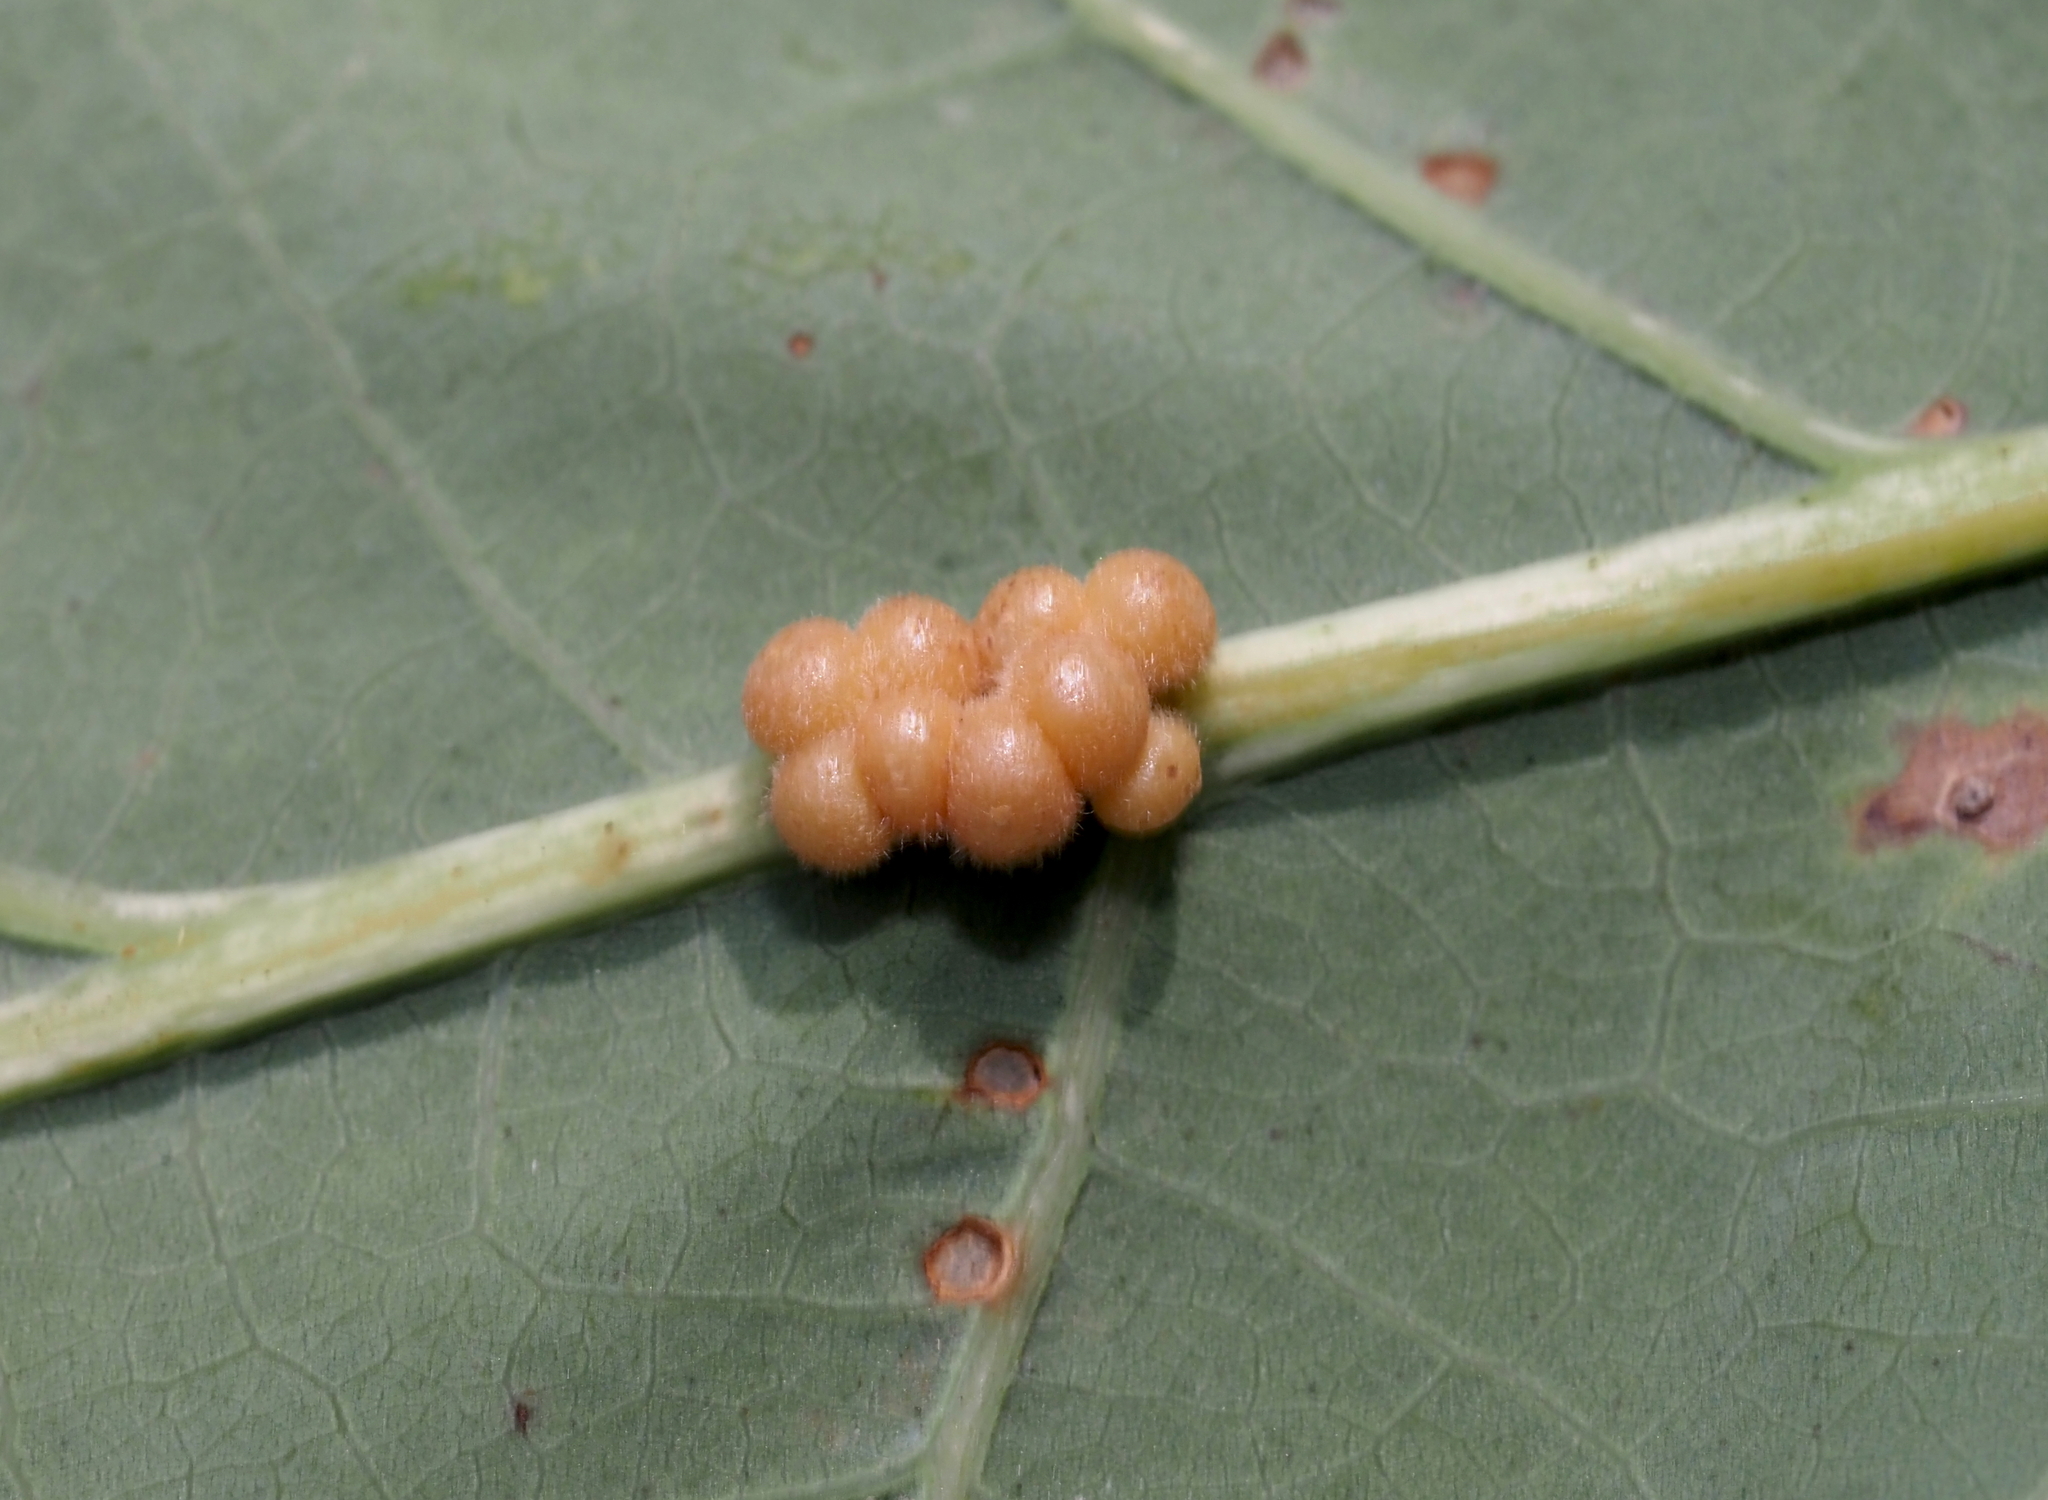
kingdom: Animalia
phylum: Arthropoda
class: Insecta
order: Hymenoptera
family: Cynipidae
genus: Andricus
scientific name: Andricus
